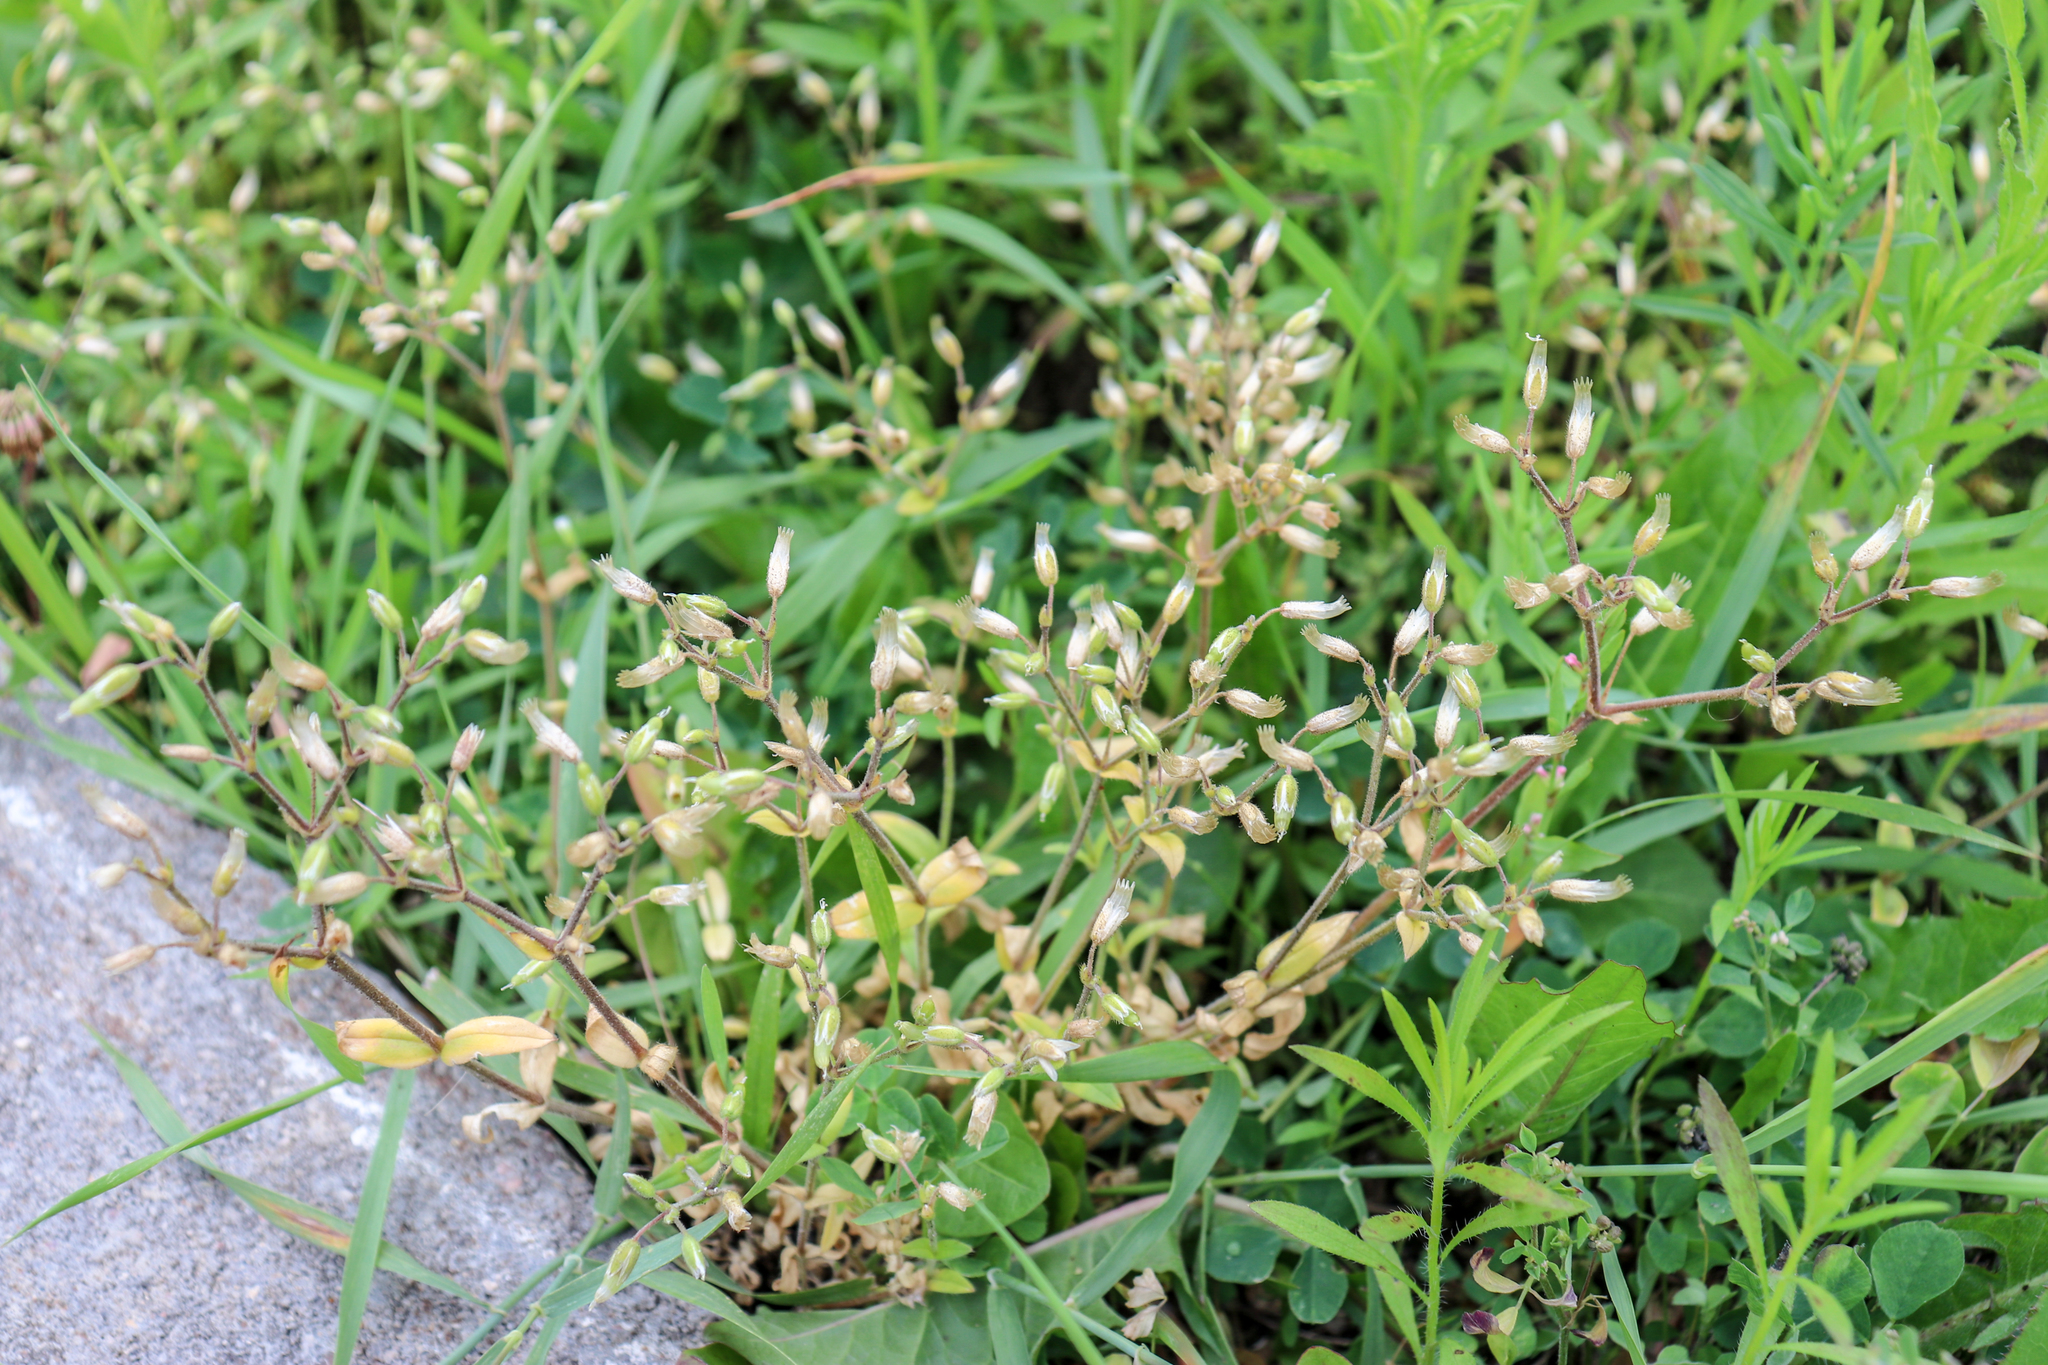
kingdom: Plantae
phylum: Tracheophyta
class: Magnoliopsida
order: Caryophyllales
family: Caryophyllaceae
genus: Cerastium
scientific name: Cerastium holosteoides
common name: Big chickweed
